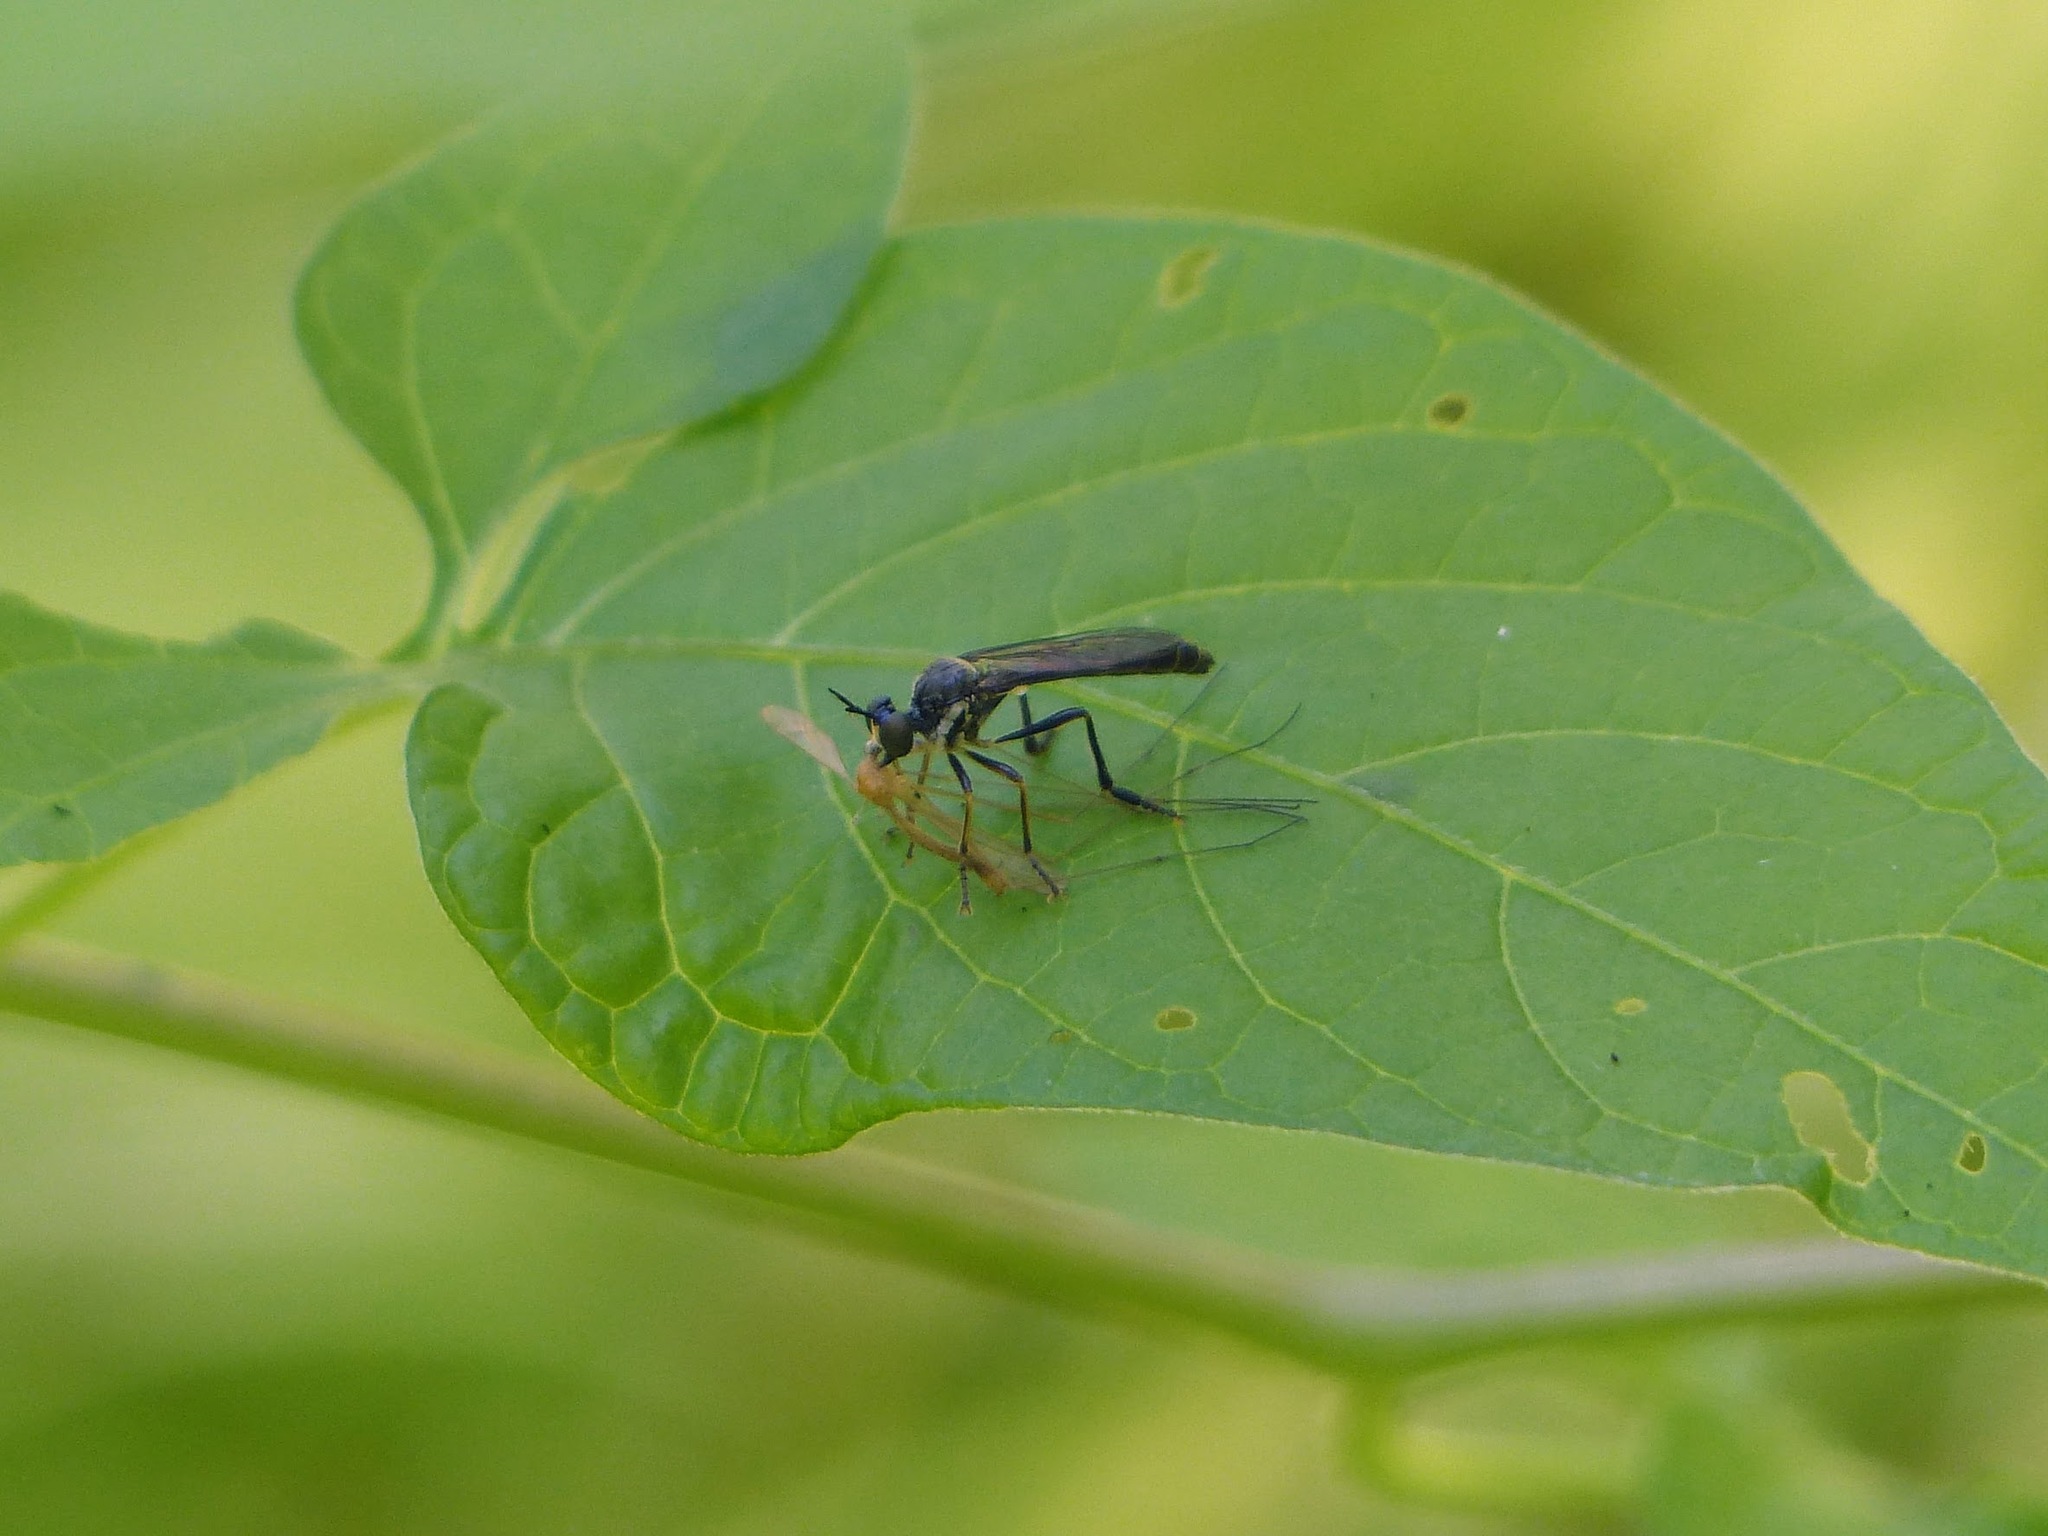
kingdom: Animalia
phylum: Arthropoda
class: Insecta
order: Diptera
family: Asilidae
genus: Dioctria
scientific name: Dioctria hyalipennis
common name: Stripe-legged robberfly
